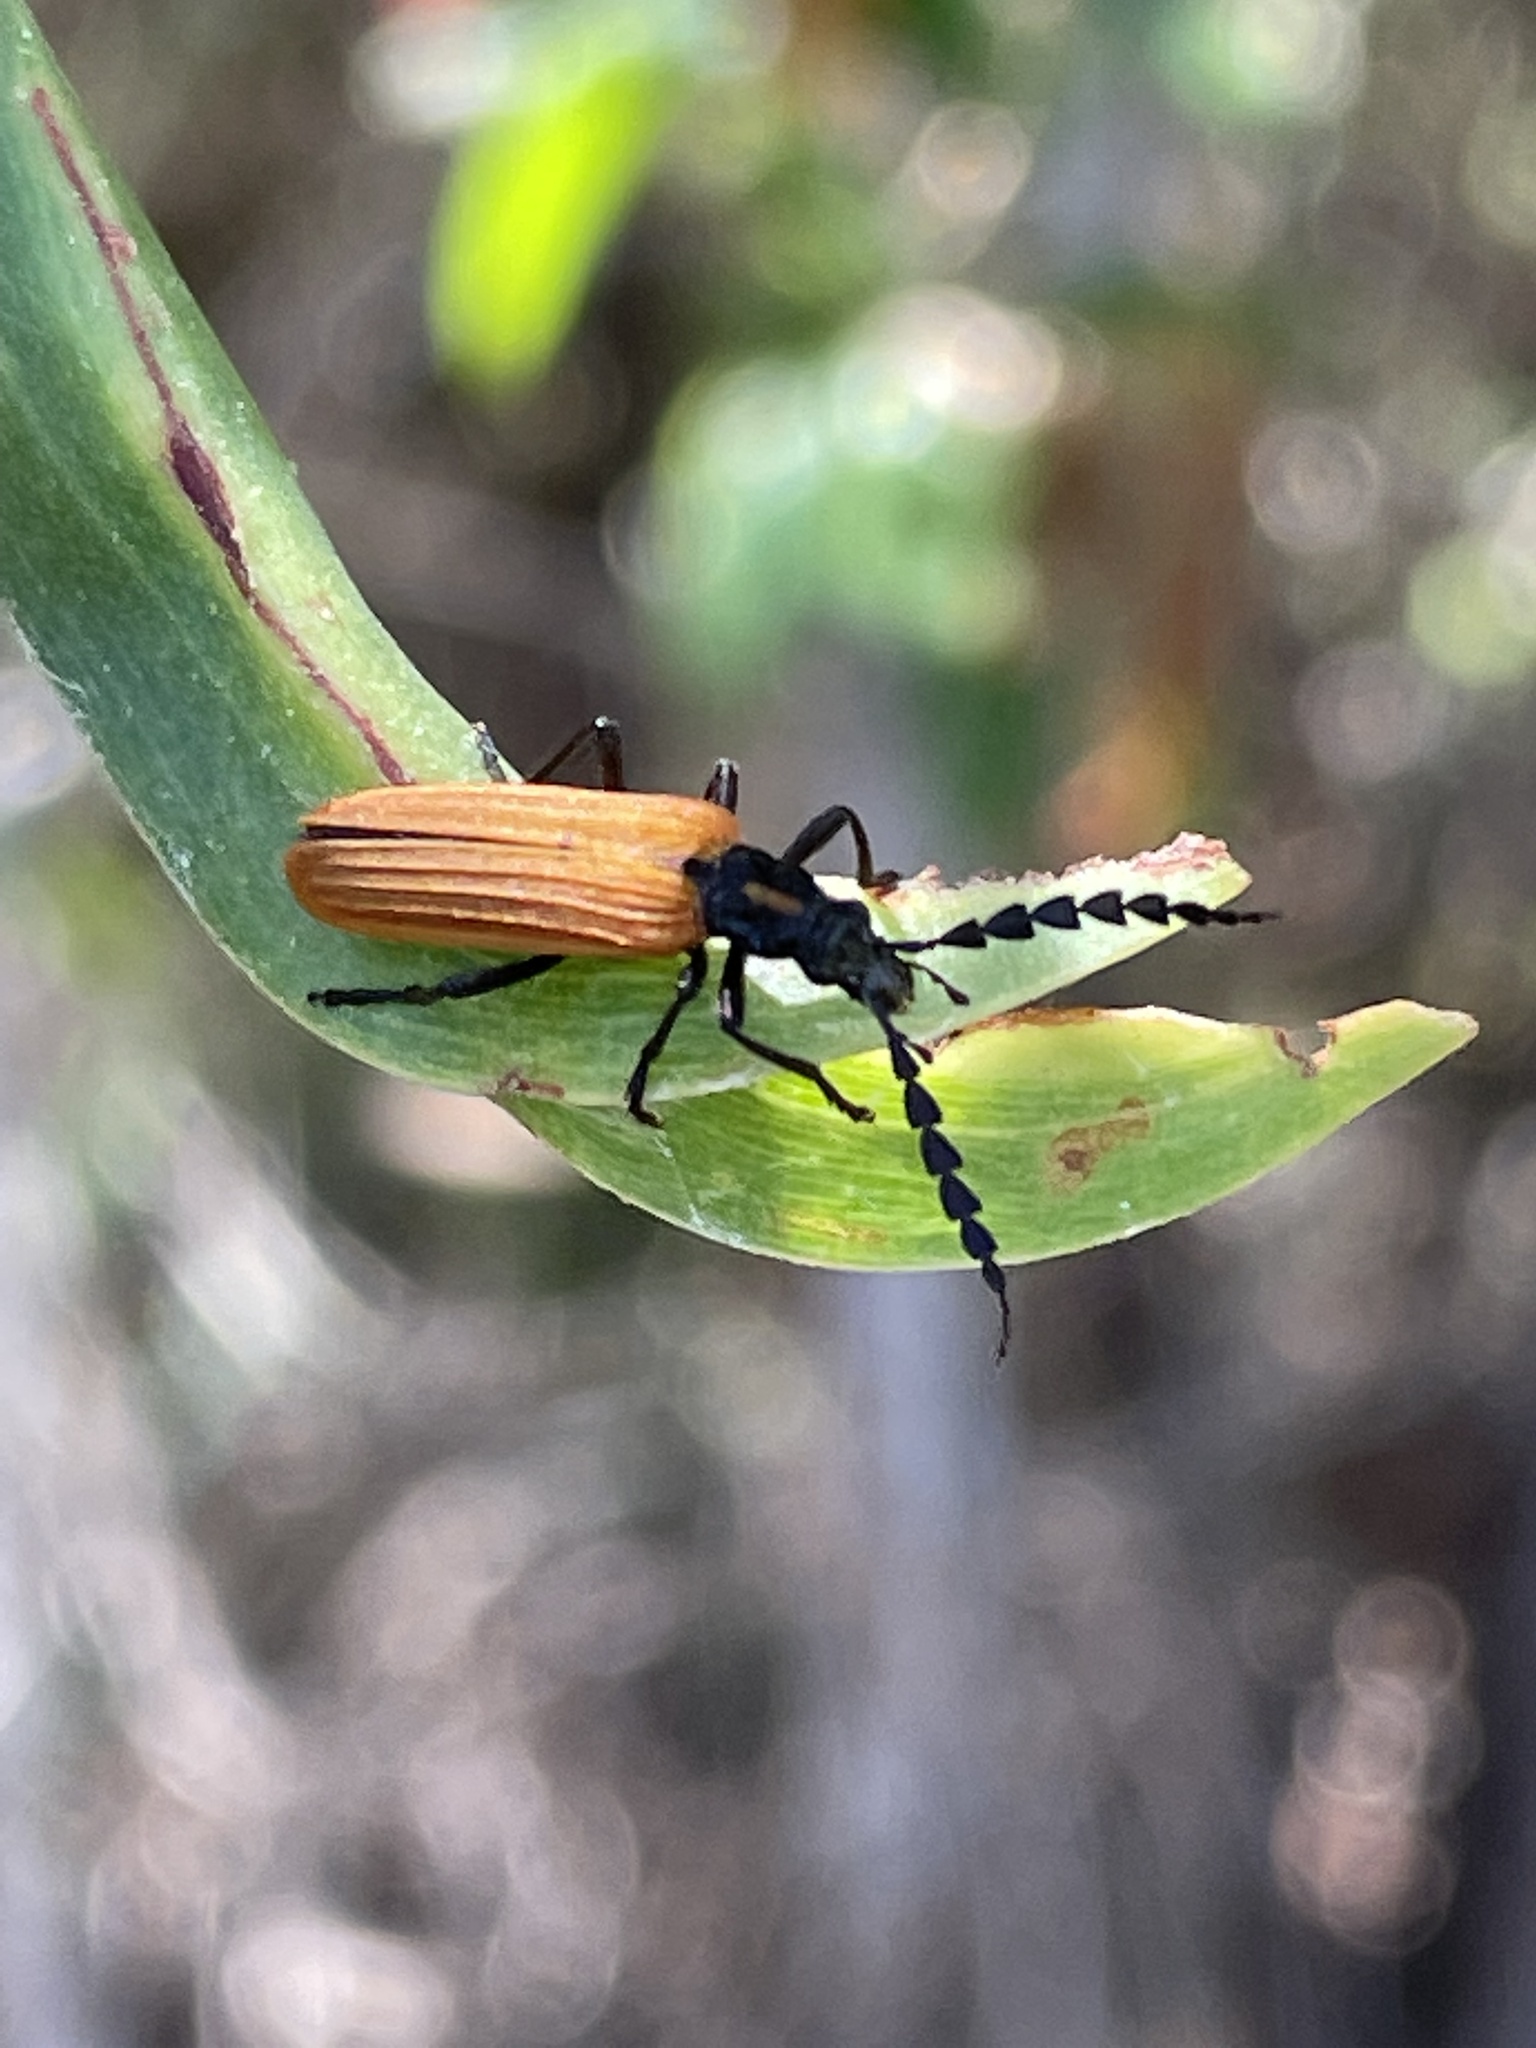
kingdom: Animalia
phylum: Arthropoda
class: Insecta
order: Coleoptera
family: Oedemeridae
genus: Pseudolycus
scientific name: Pseudolycus
